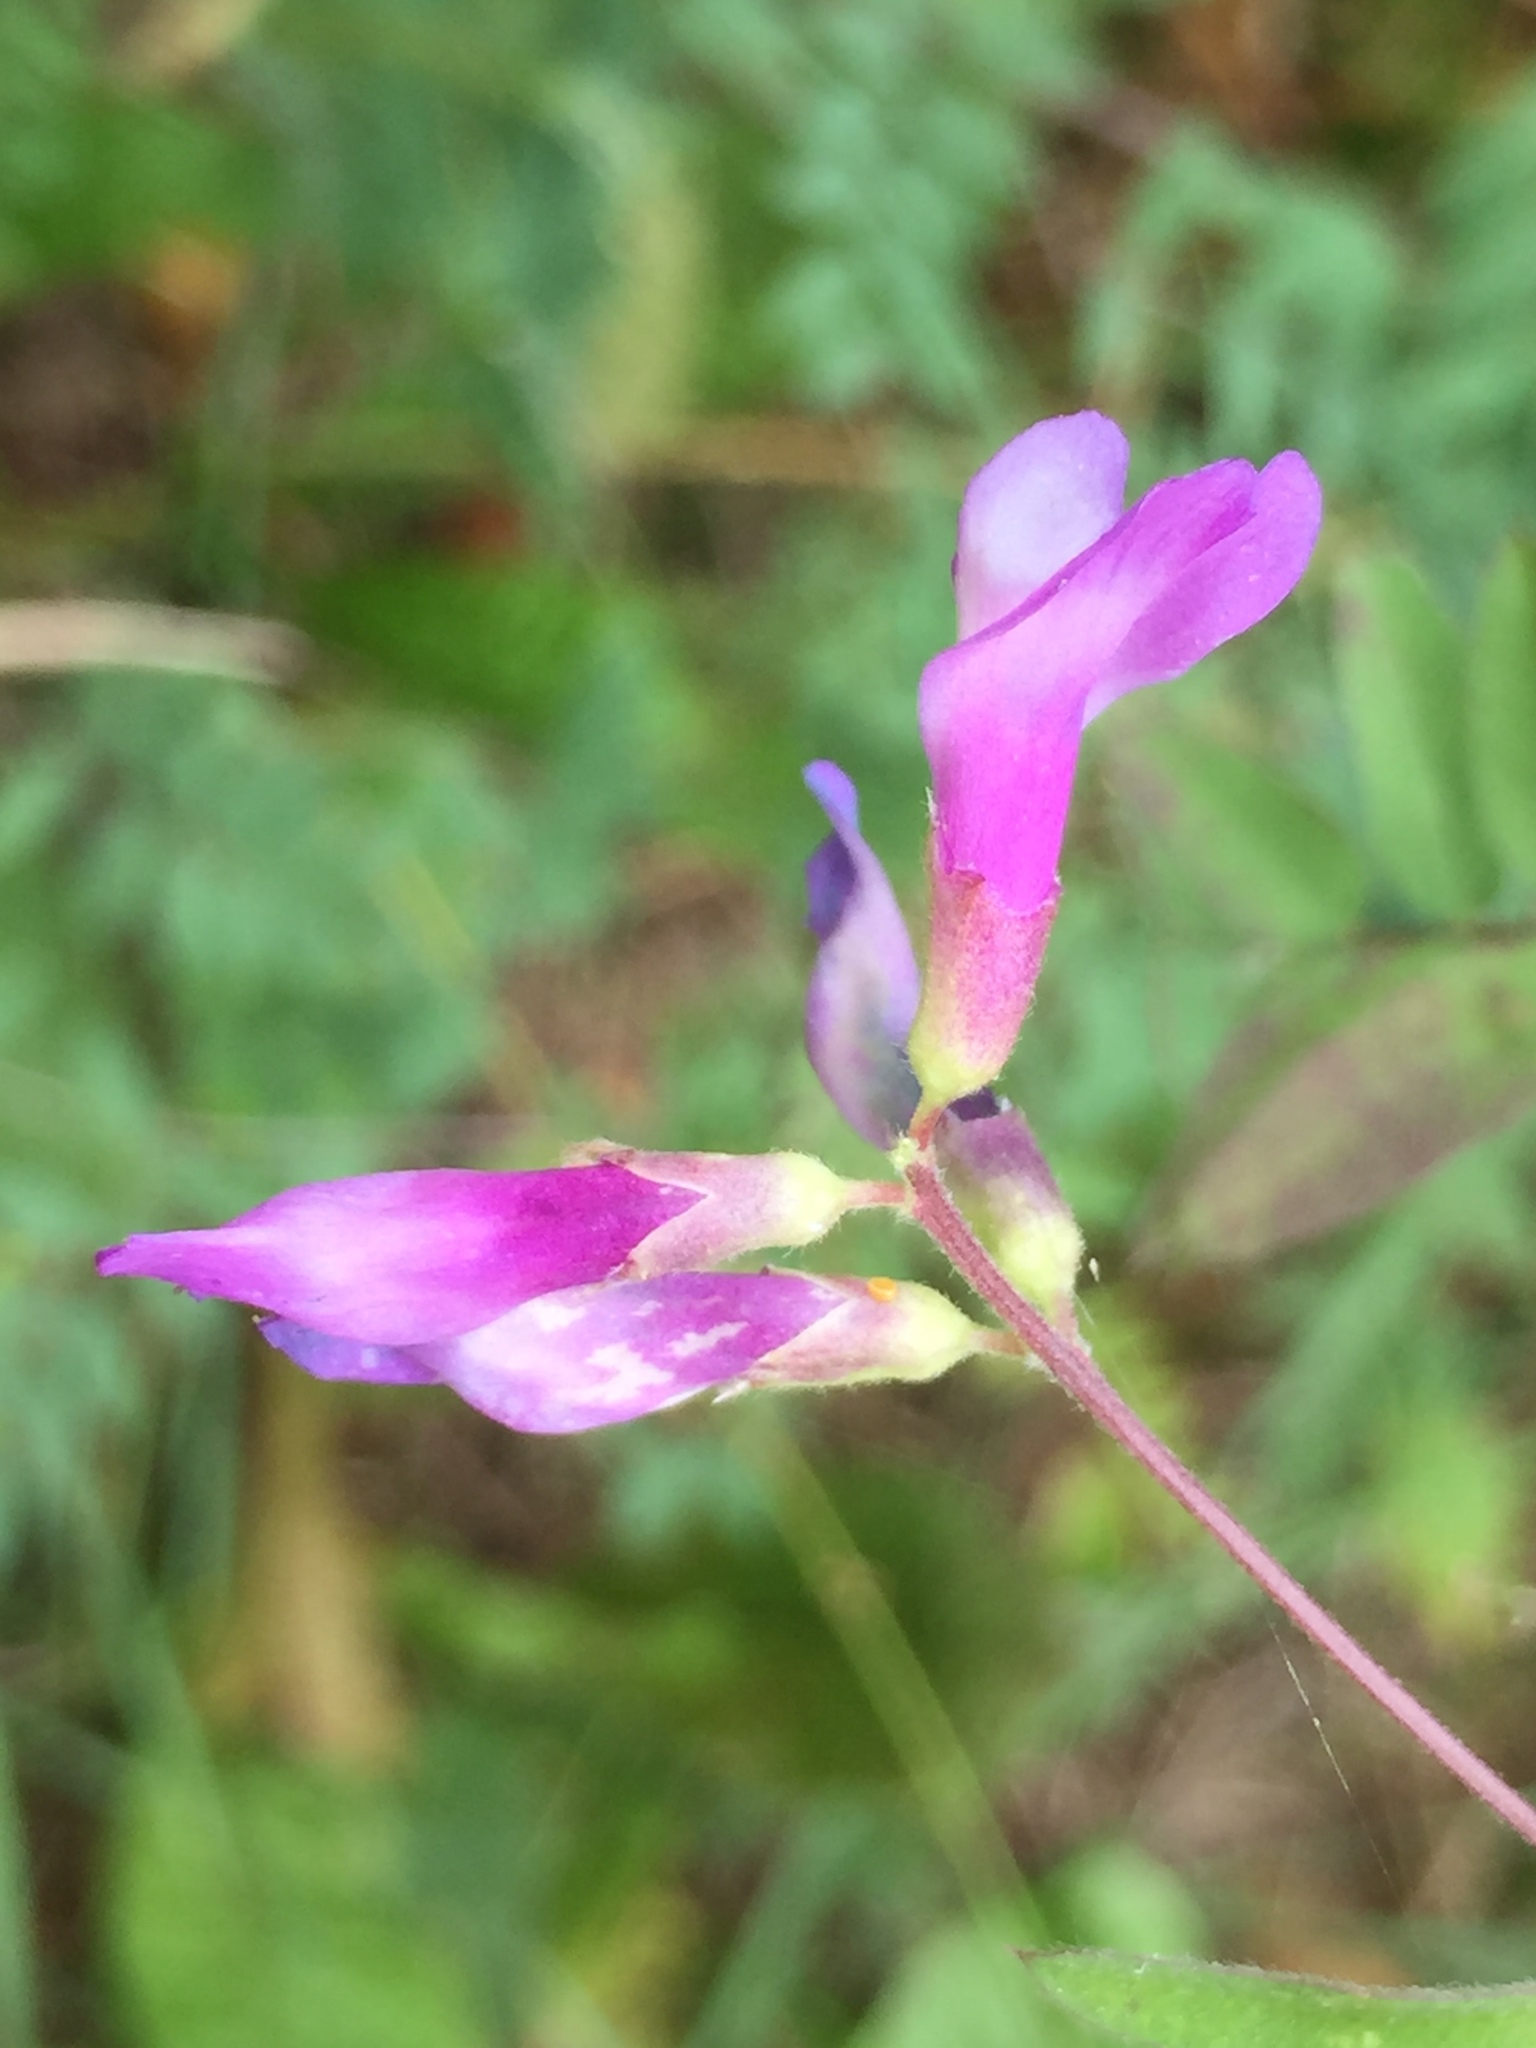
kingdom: Plantae
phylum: Tracheophyta
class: Magnoliopsida
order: Fabales
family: Fabaceae
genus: Vicia
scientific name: Vicia americana
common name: American vetch
